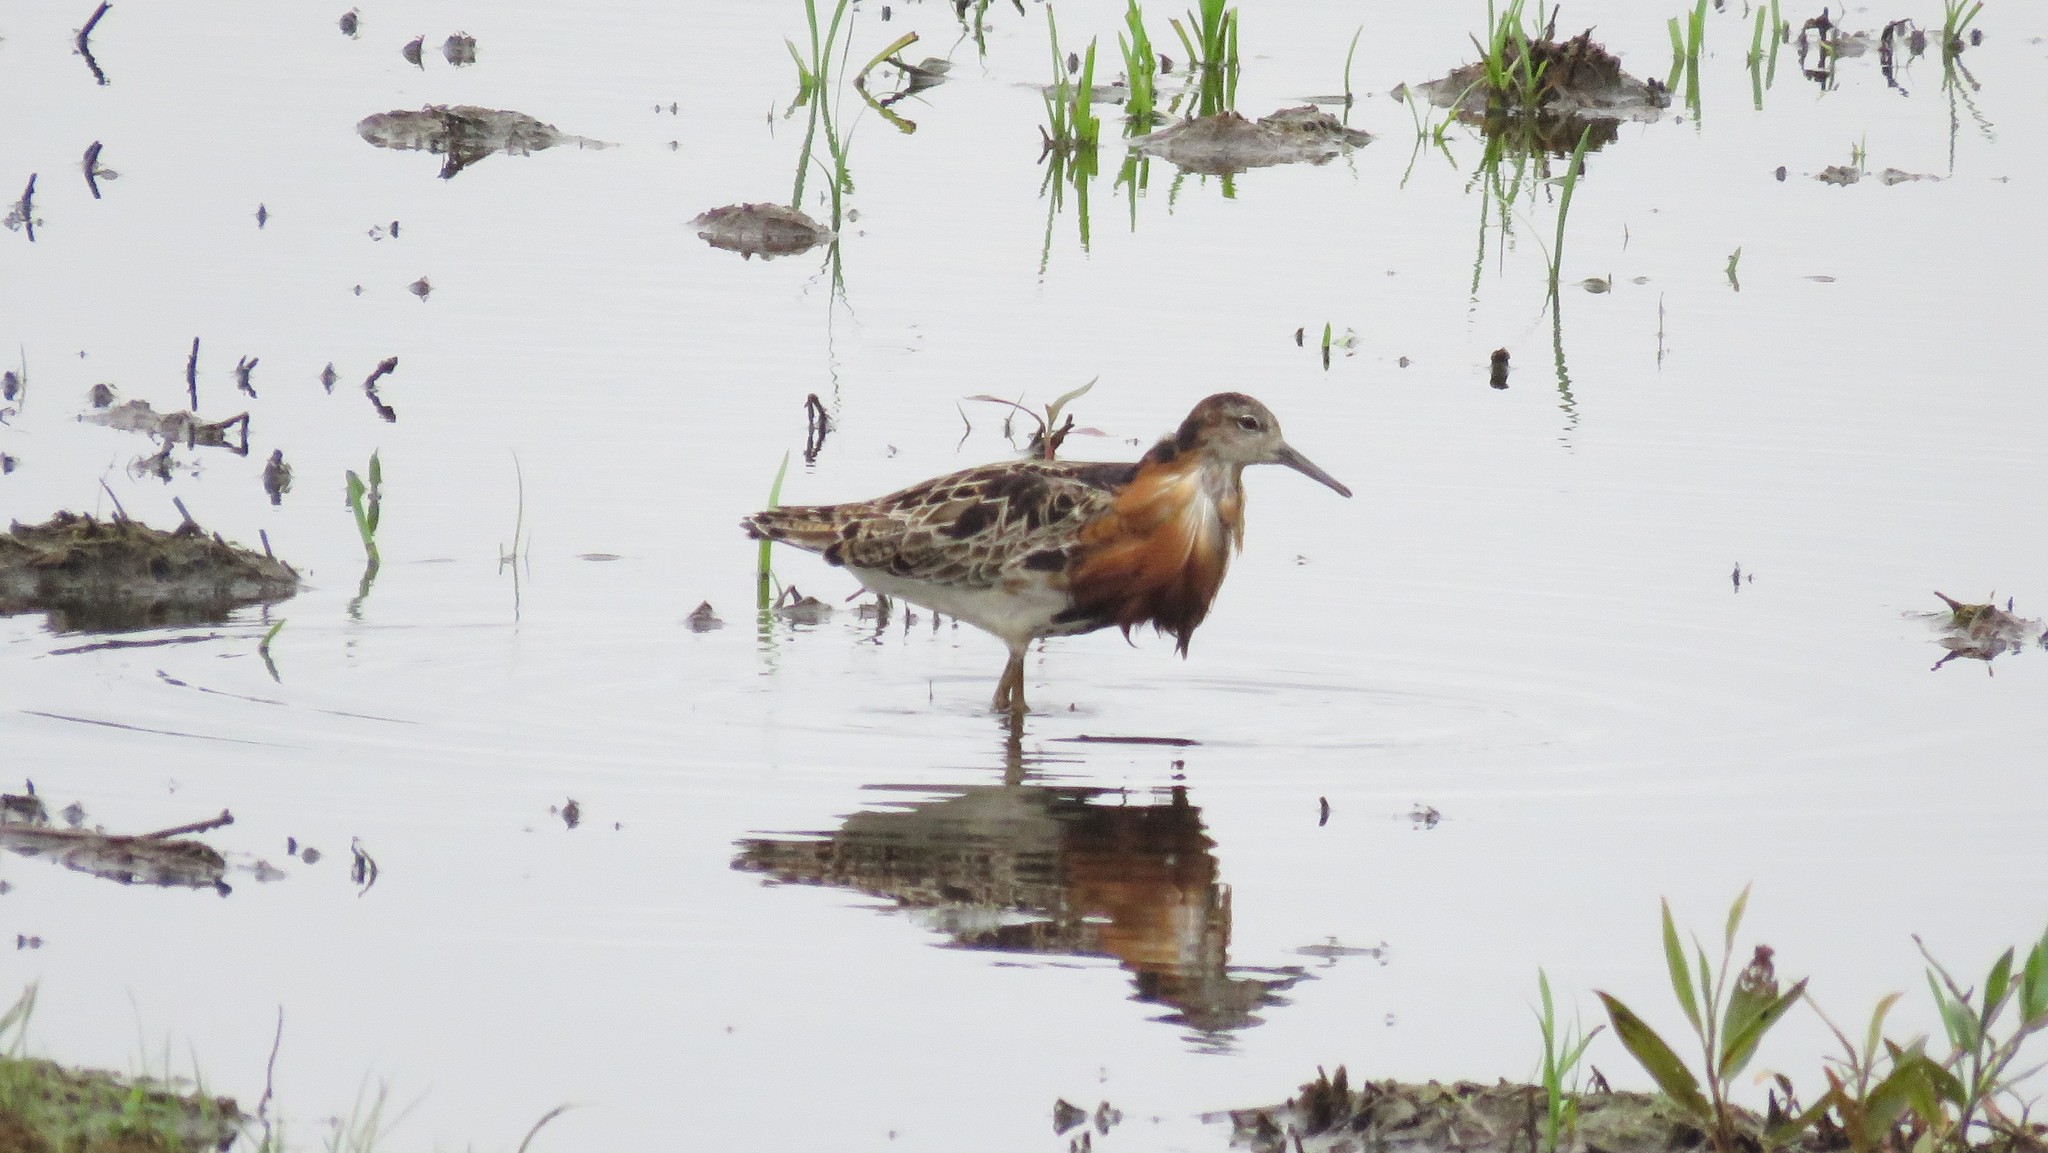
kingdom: Animalia
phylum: Chordata
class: Aves
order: Charadriiformes
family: Scolopacidae
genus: Calidris
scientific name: Calidris pugnax
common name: Ruff
